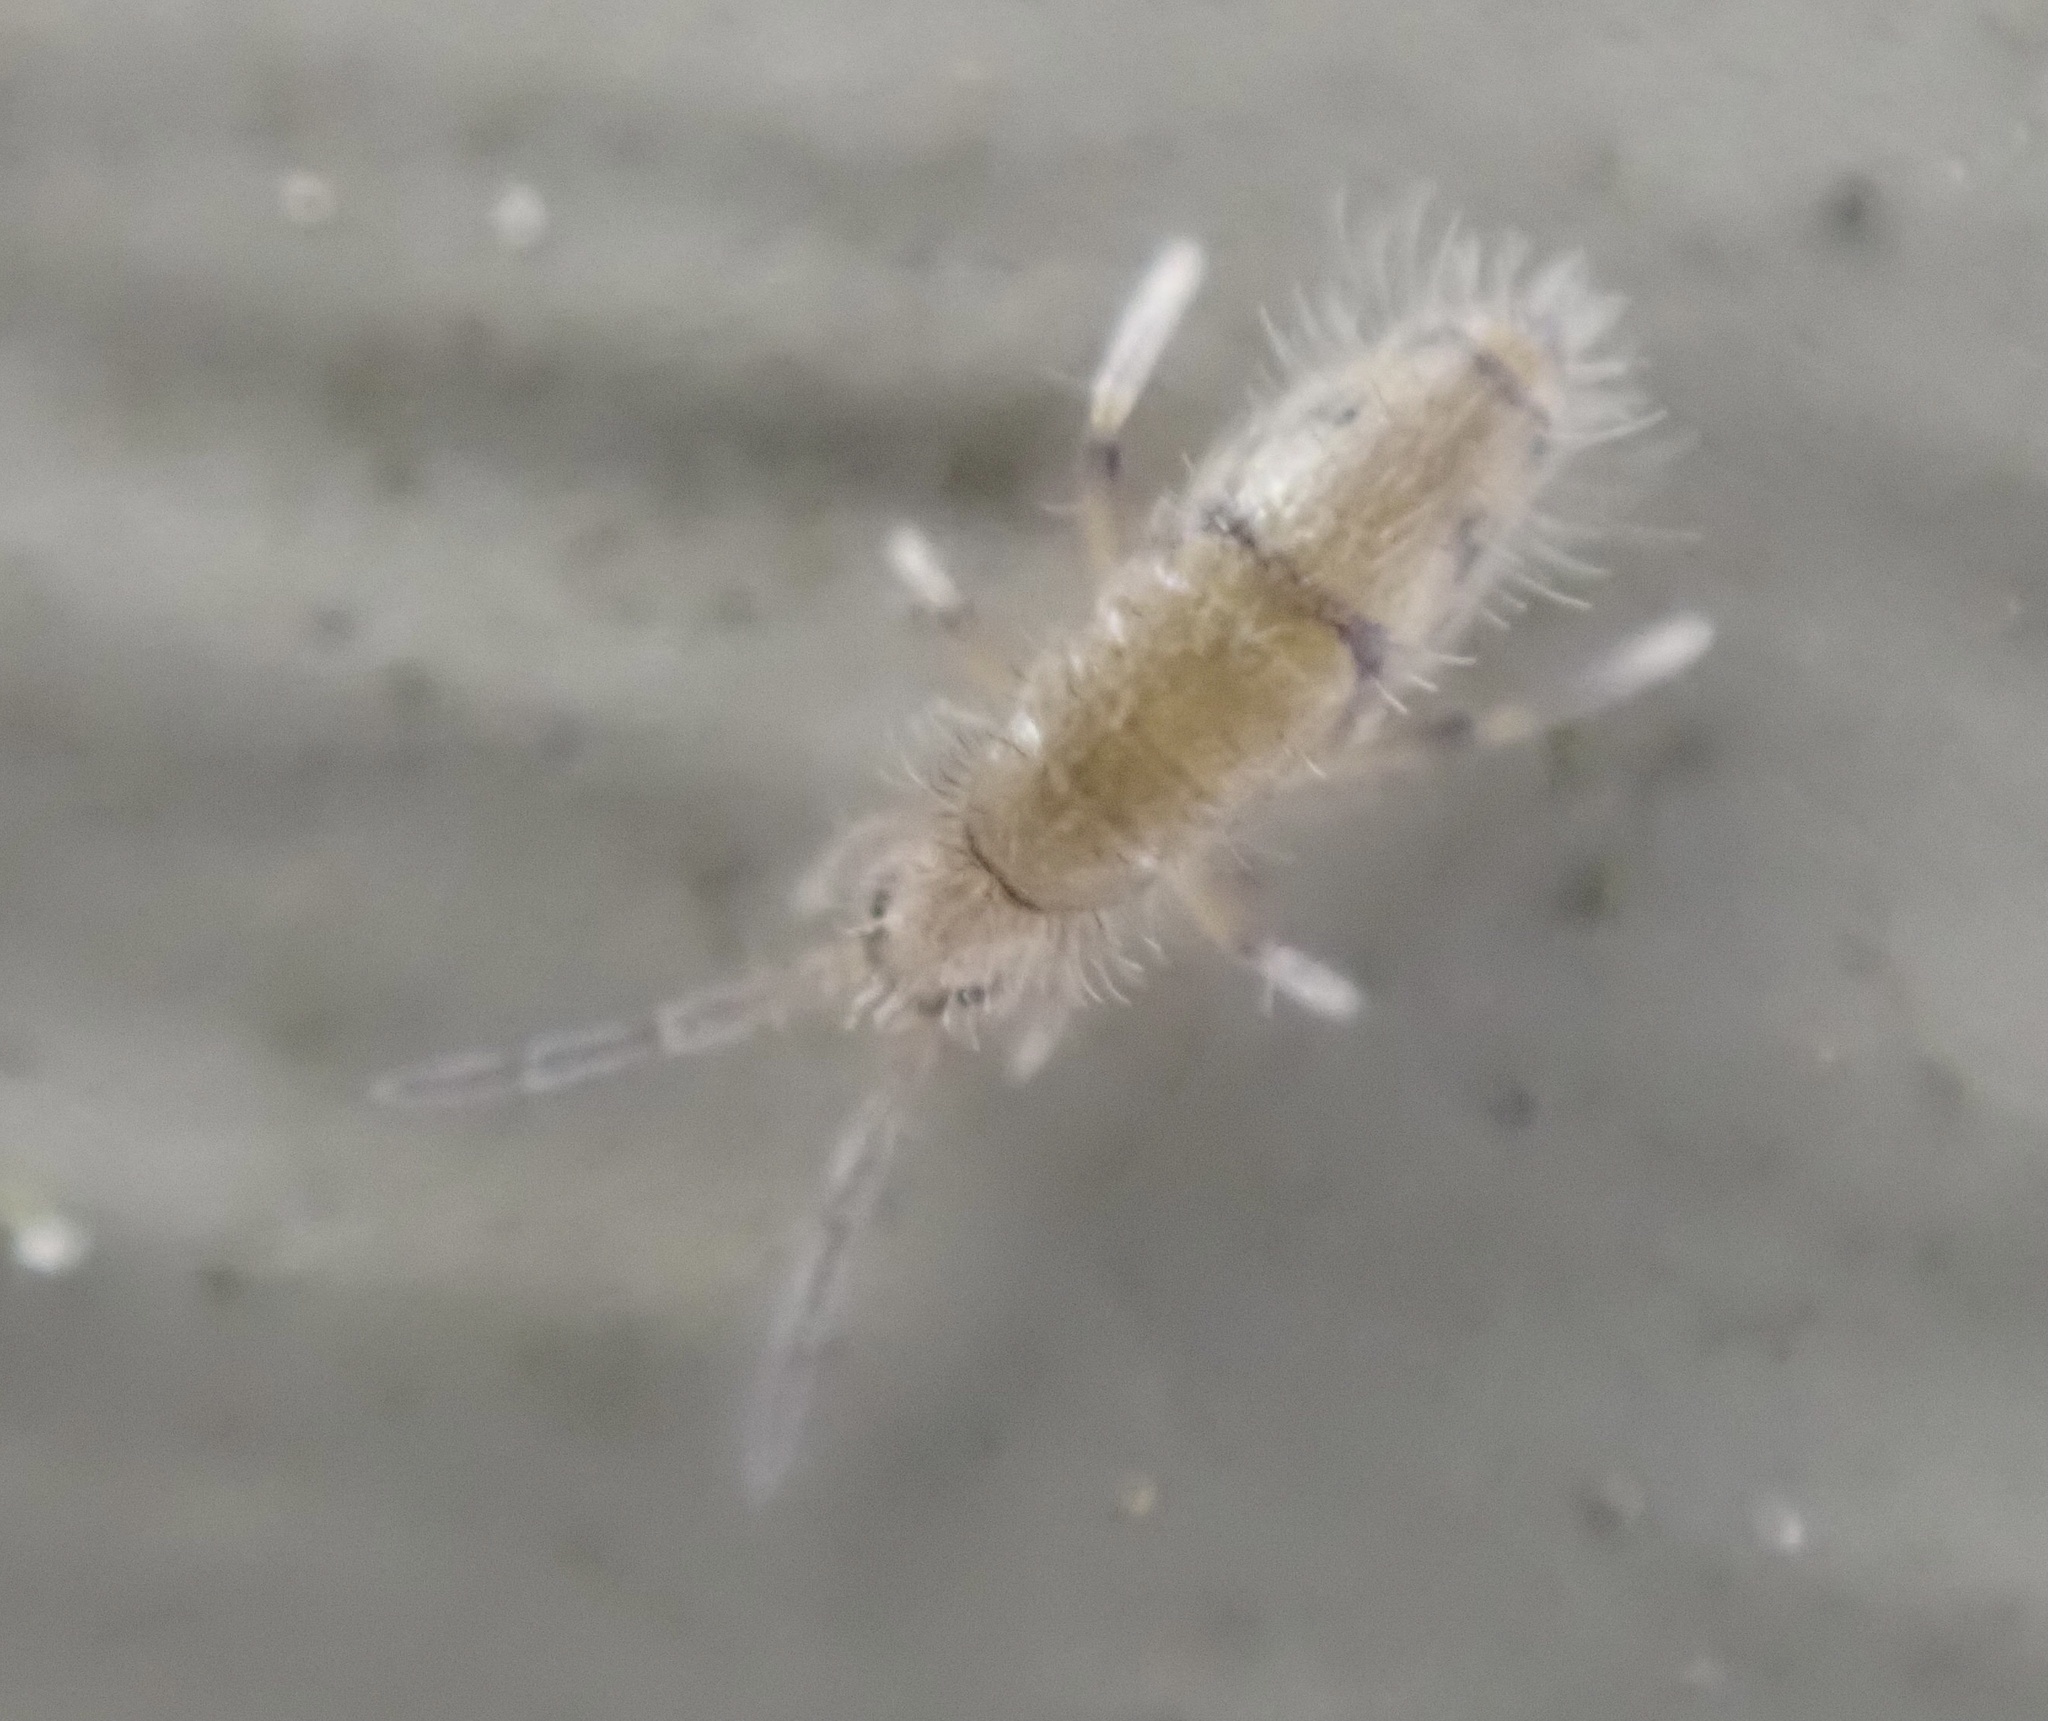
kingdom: Animalia
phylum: Arthropoda
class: Collembola
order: Entomobryomorpha
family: Entomobryidae
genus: Willowsia
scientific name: Willowsia nigromaculata
